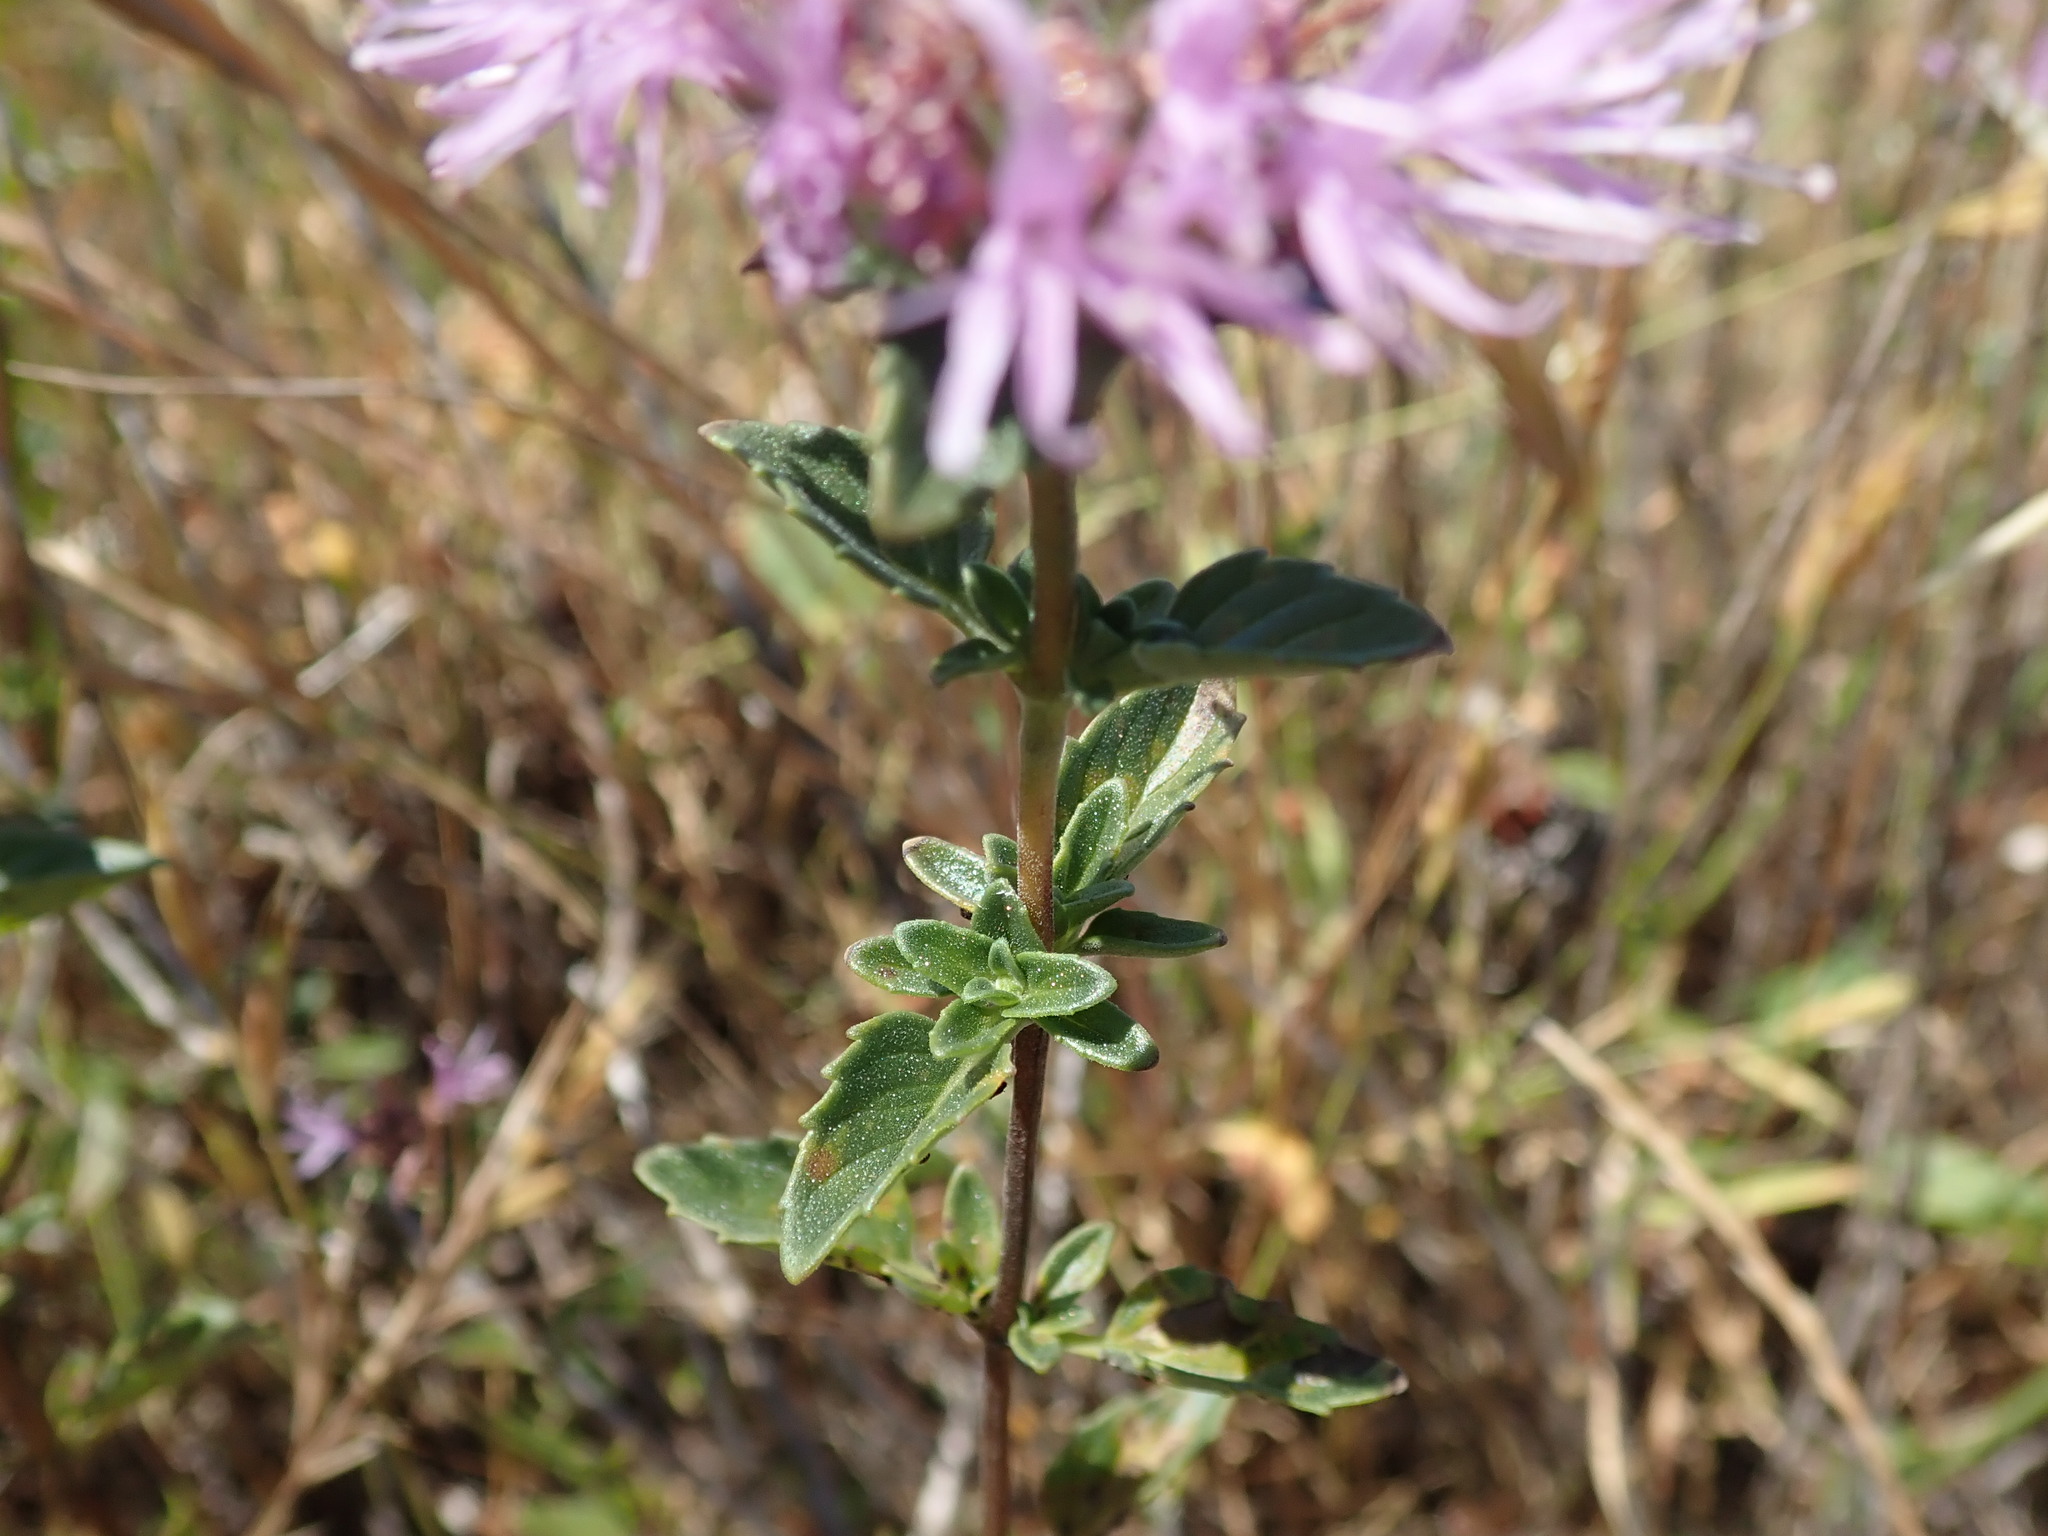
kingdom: Plantae
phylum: Tracheophyta
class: Magnoliopsida
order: Lamiales
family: Lamiaceae
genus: Monardella
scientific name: Monardella odoratissima
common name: Pacific monardella
